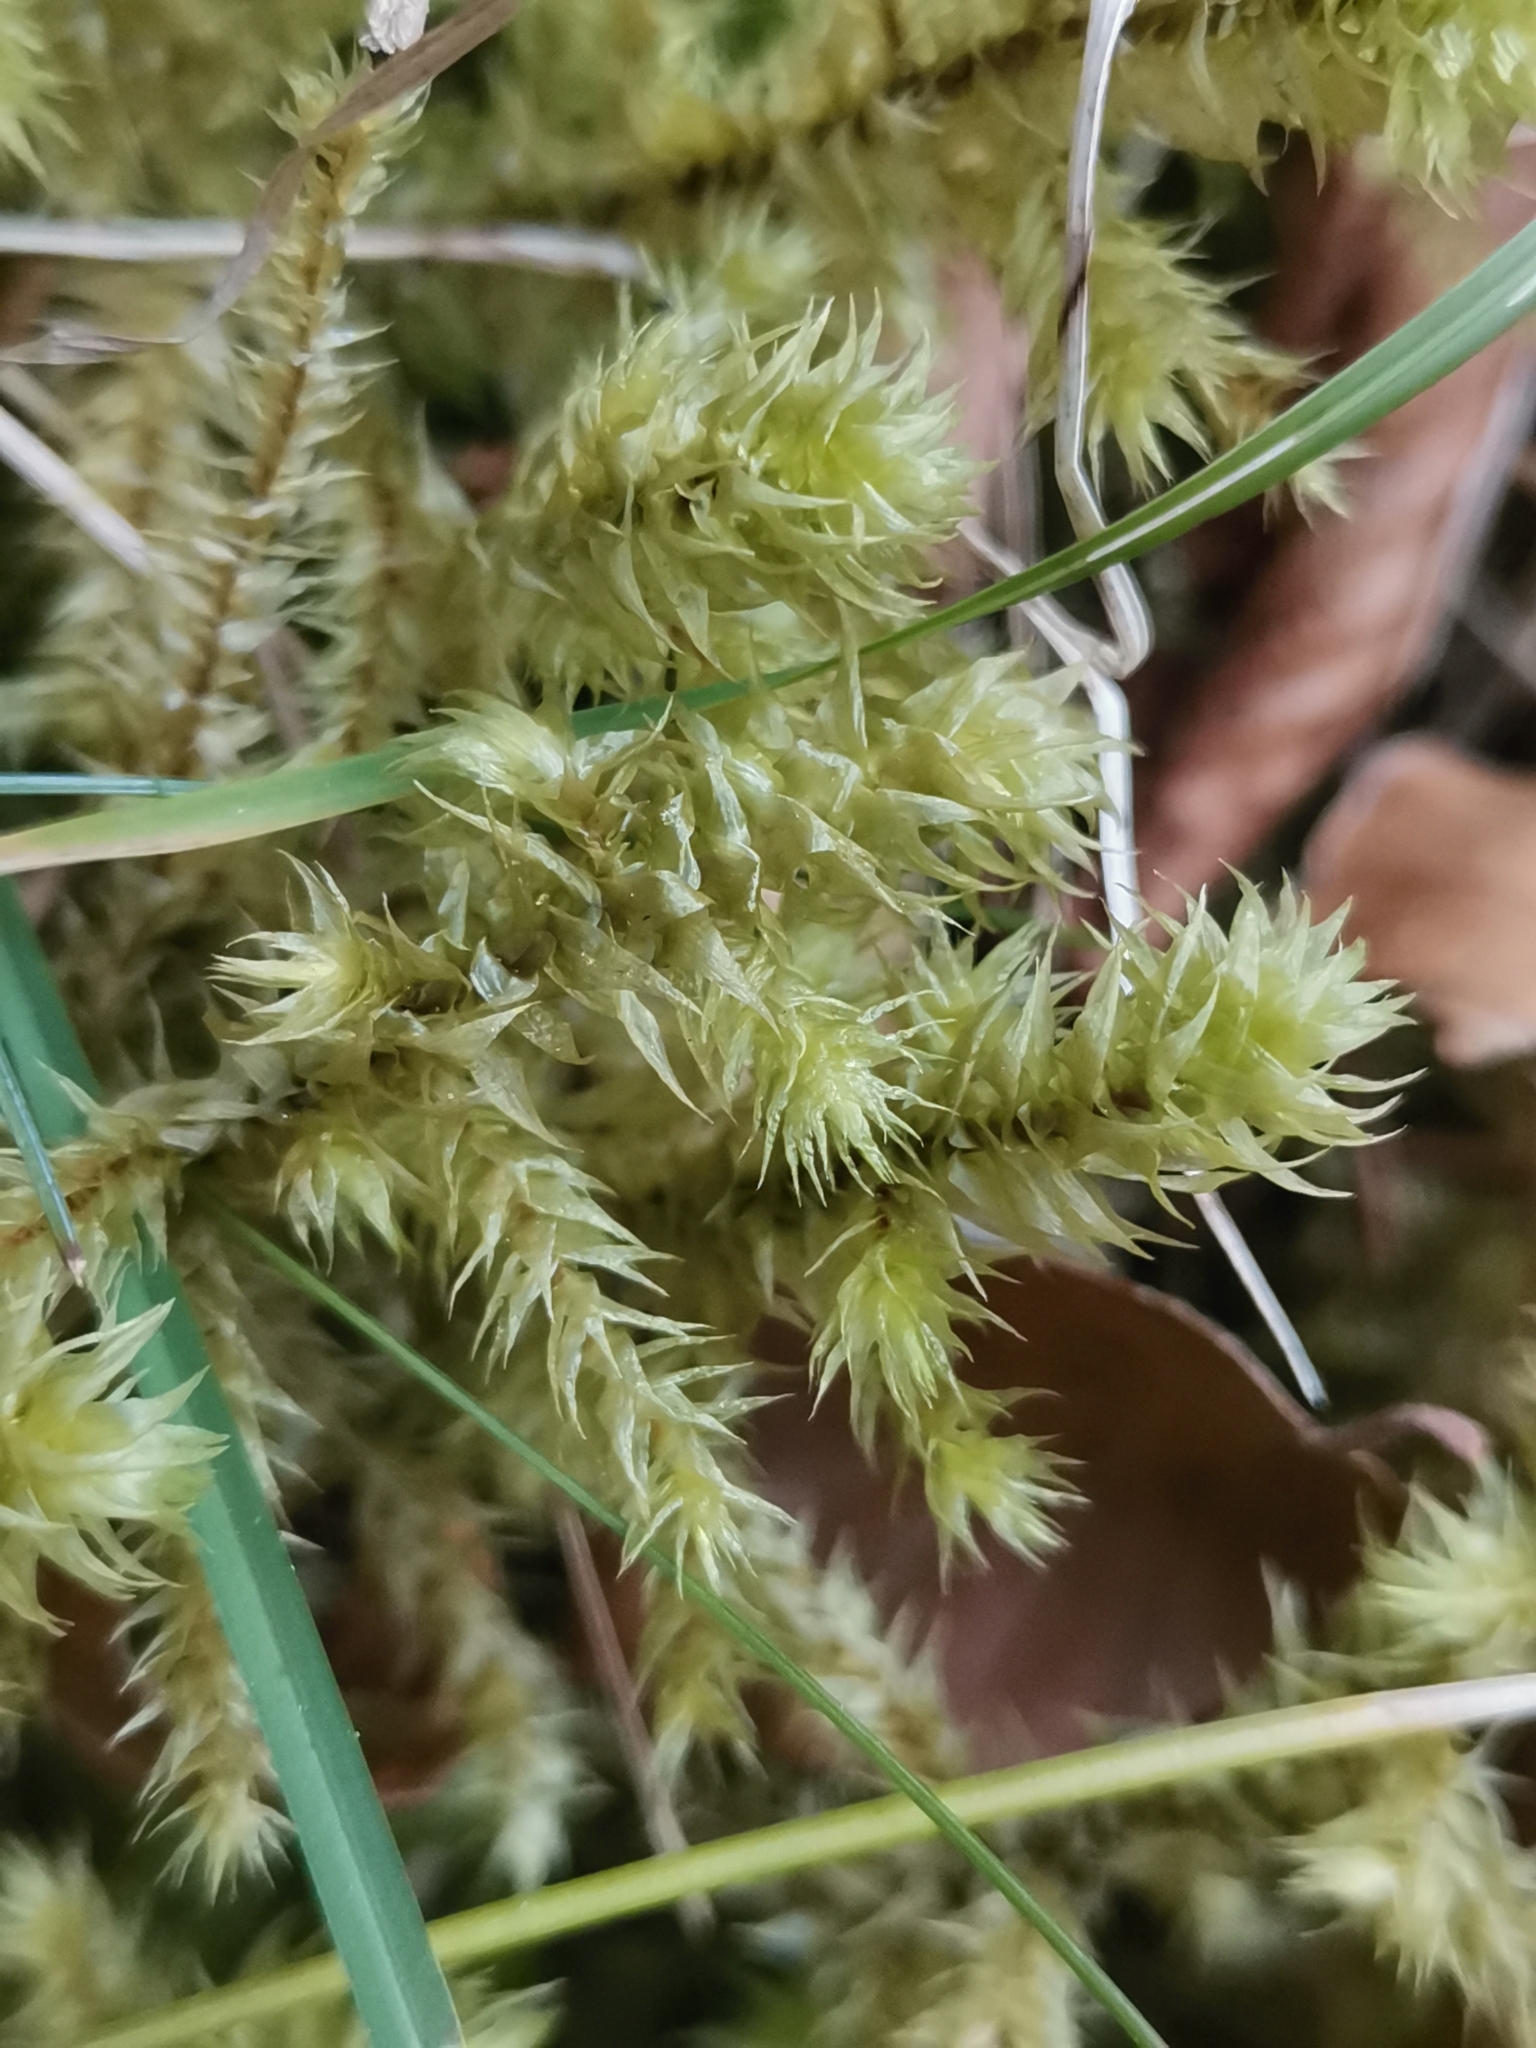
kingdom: Plantae
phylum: Bryophyta
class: Bryopsida
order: Hypnales
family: Hylocomiaceae
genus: Hylocomiadelphus
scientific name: Hylocomiadelphus triquetrus
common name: Rough goose neck moss
